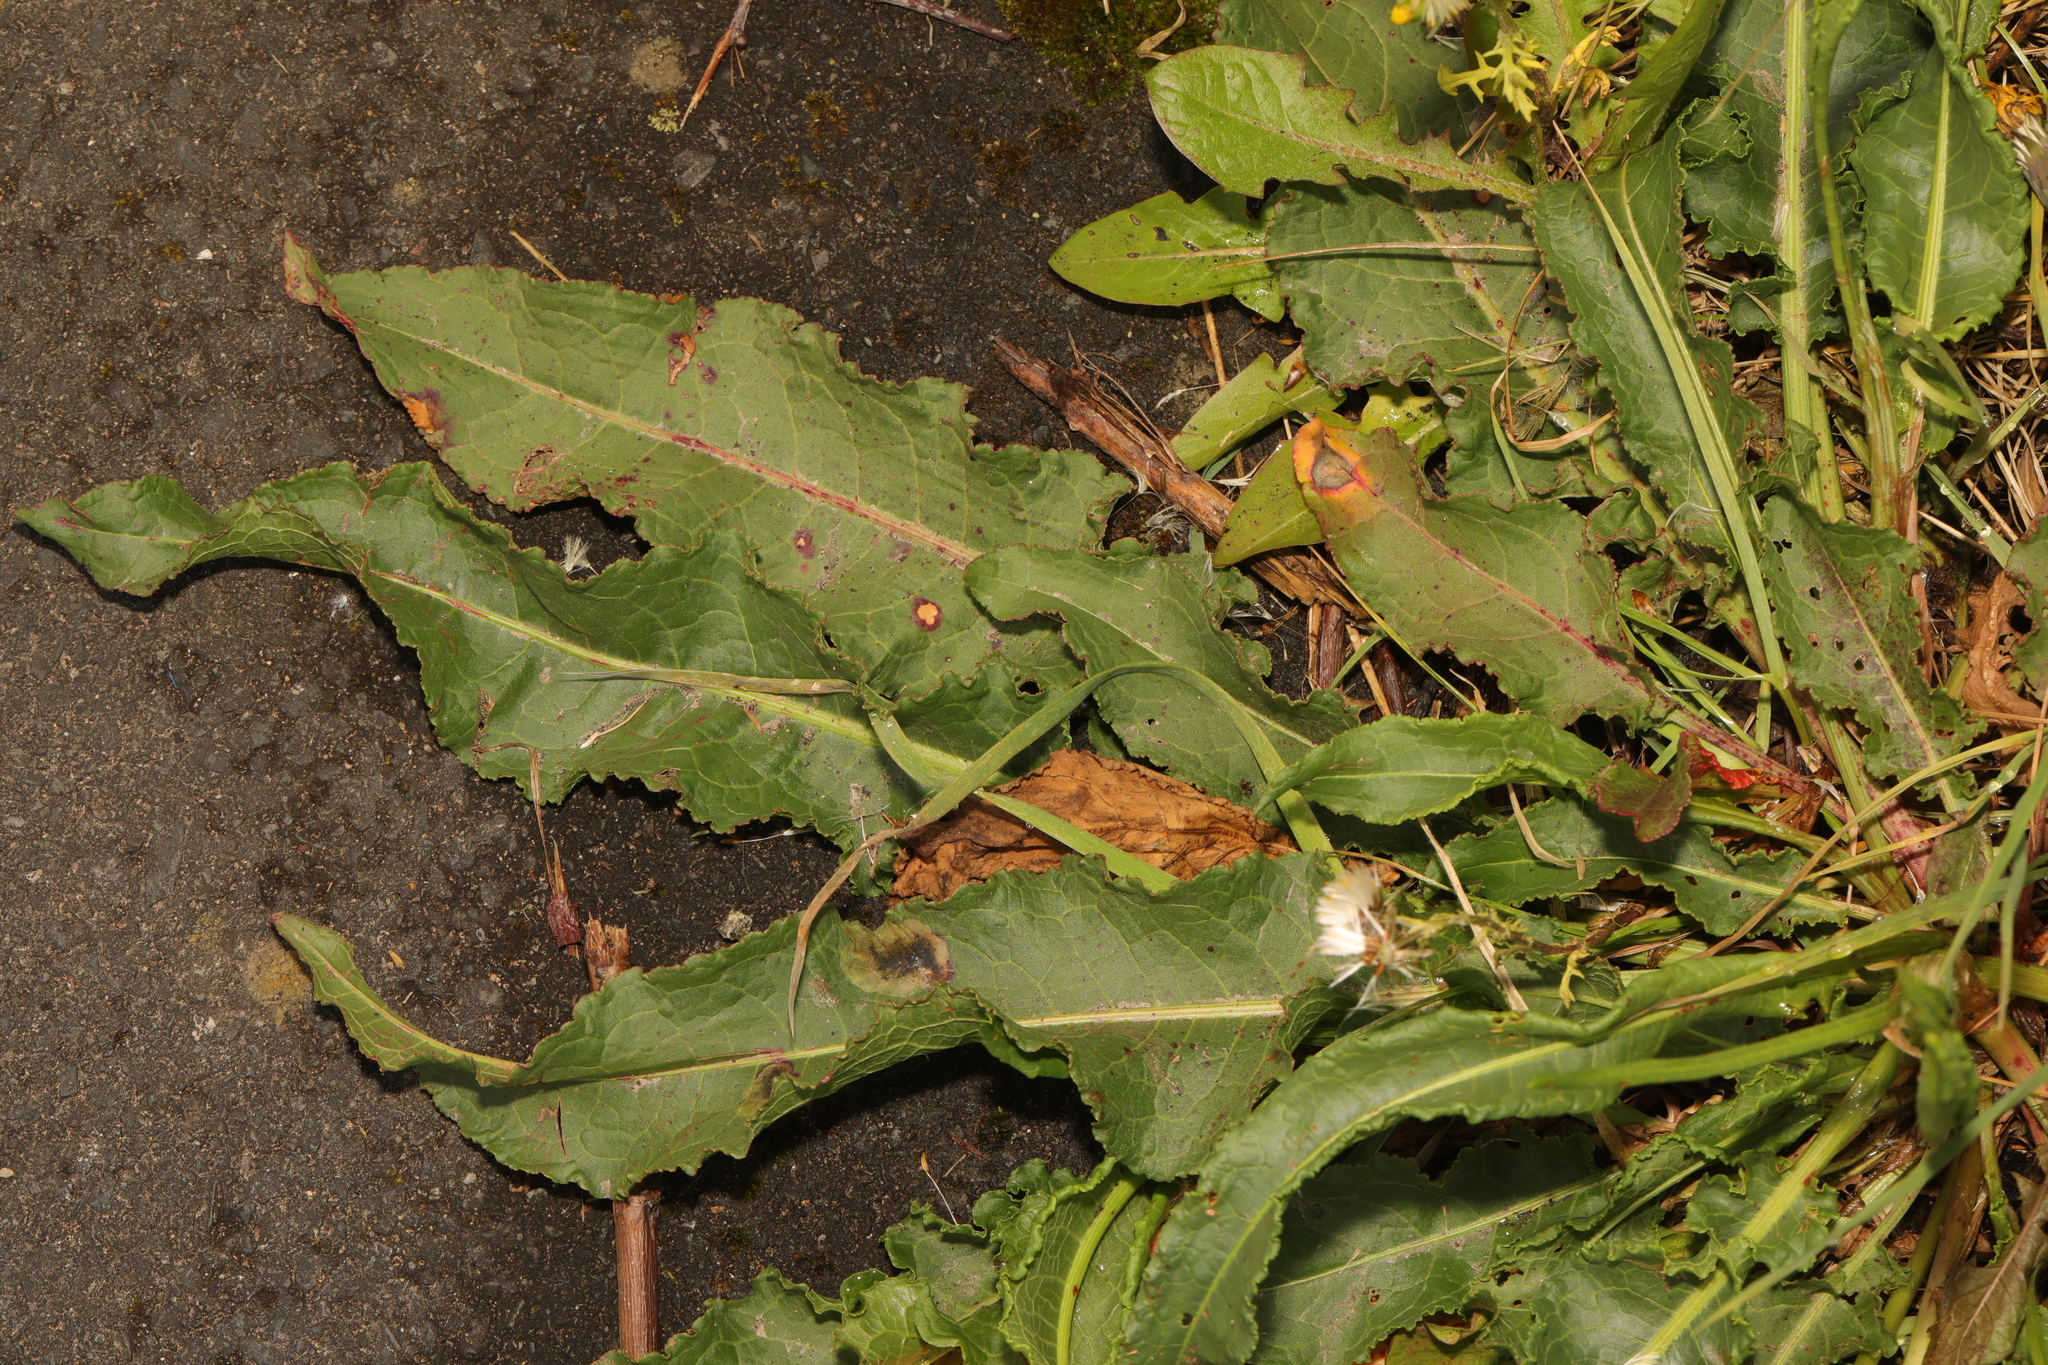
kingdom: Plantae
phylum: Tracheophyta
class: Magnoliopsida
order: Caryophyllales
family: Polygonaceae
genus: Rumex
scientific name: Rumex crispus
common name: Curled dock
